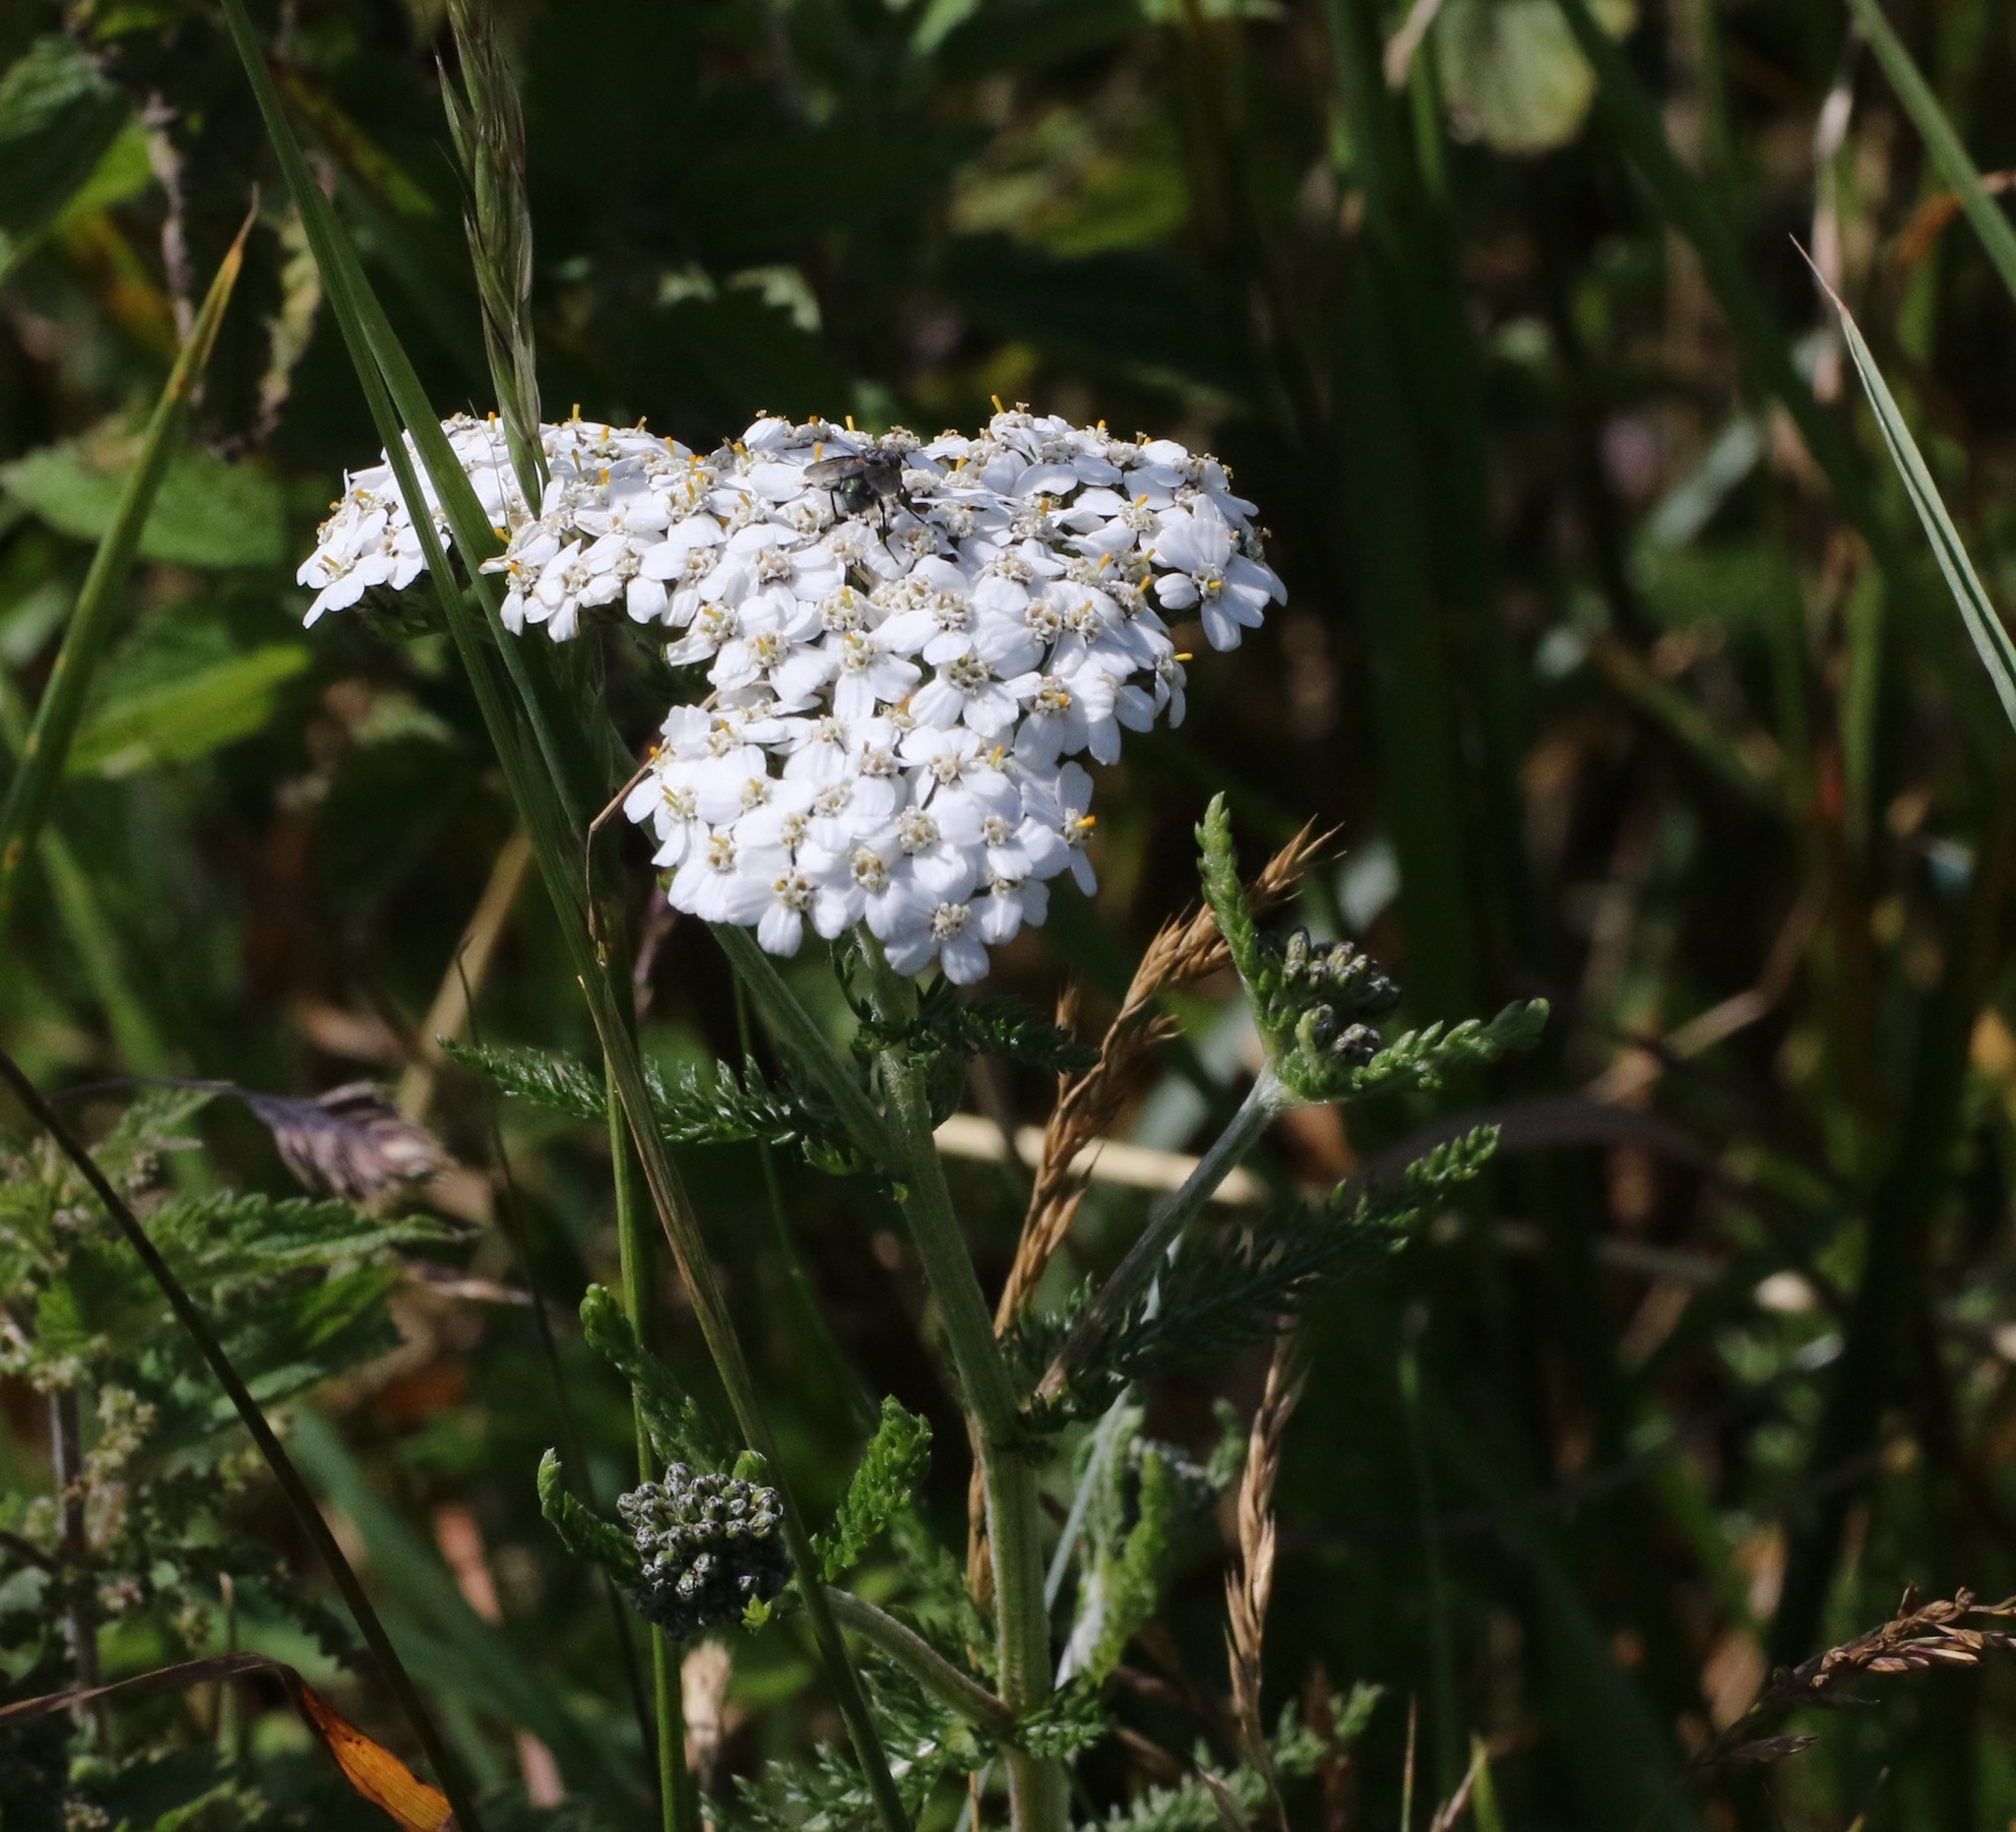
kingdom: Plantae
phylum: Tracheophyta
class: Magnoliopsida
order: Asterales
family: Asteraceae
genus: Achillea
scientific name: Achillea millefolium
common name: Yarrow
